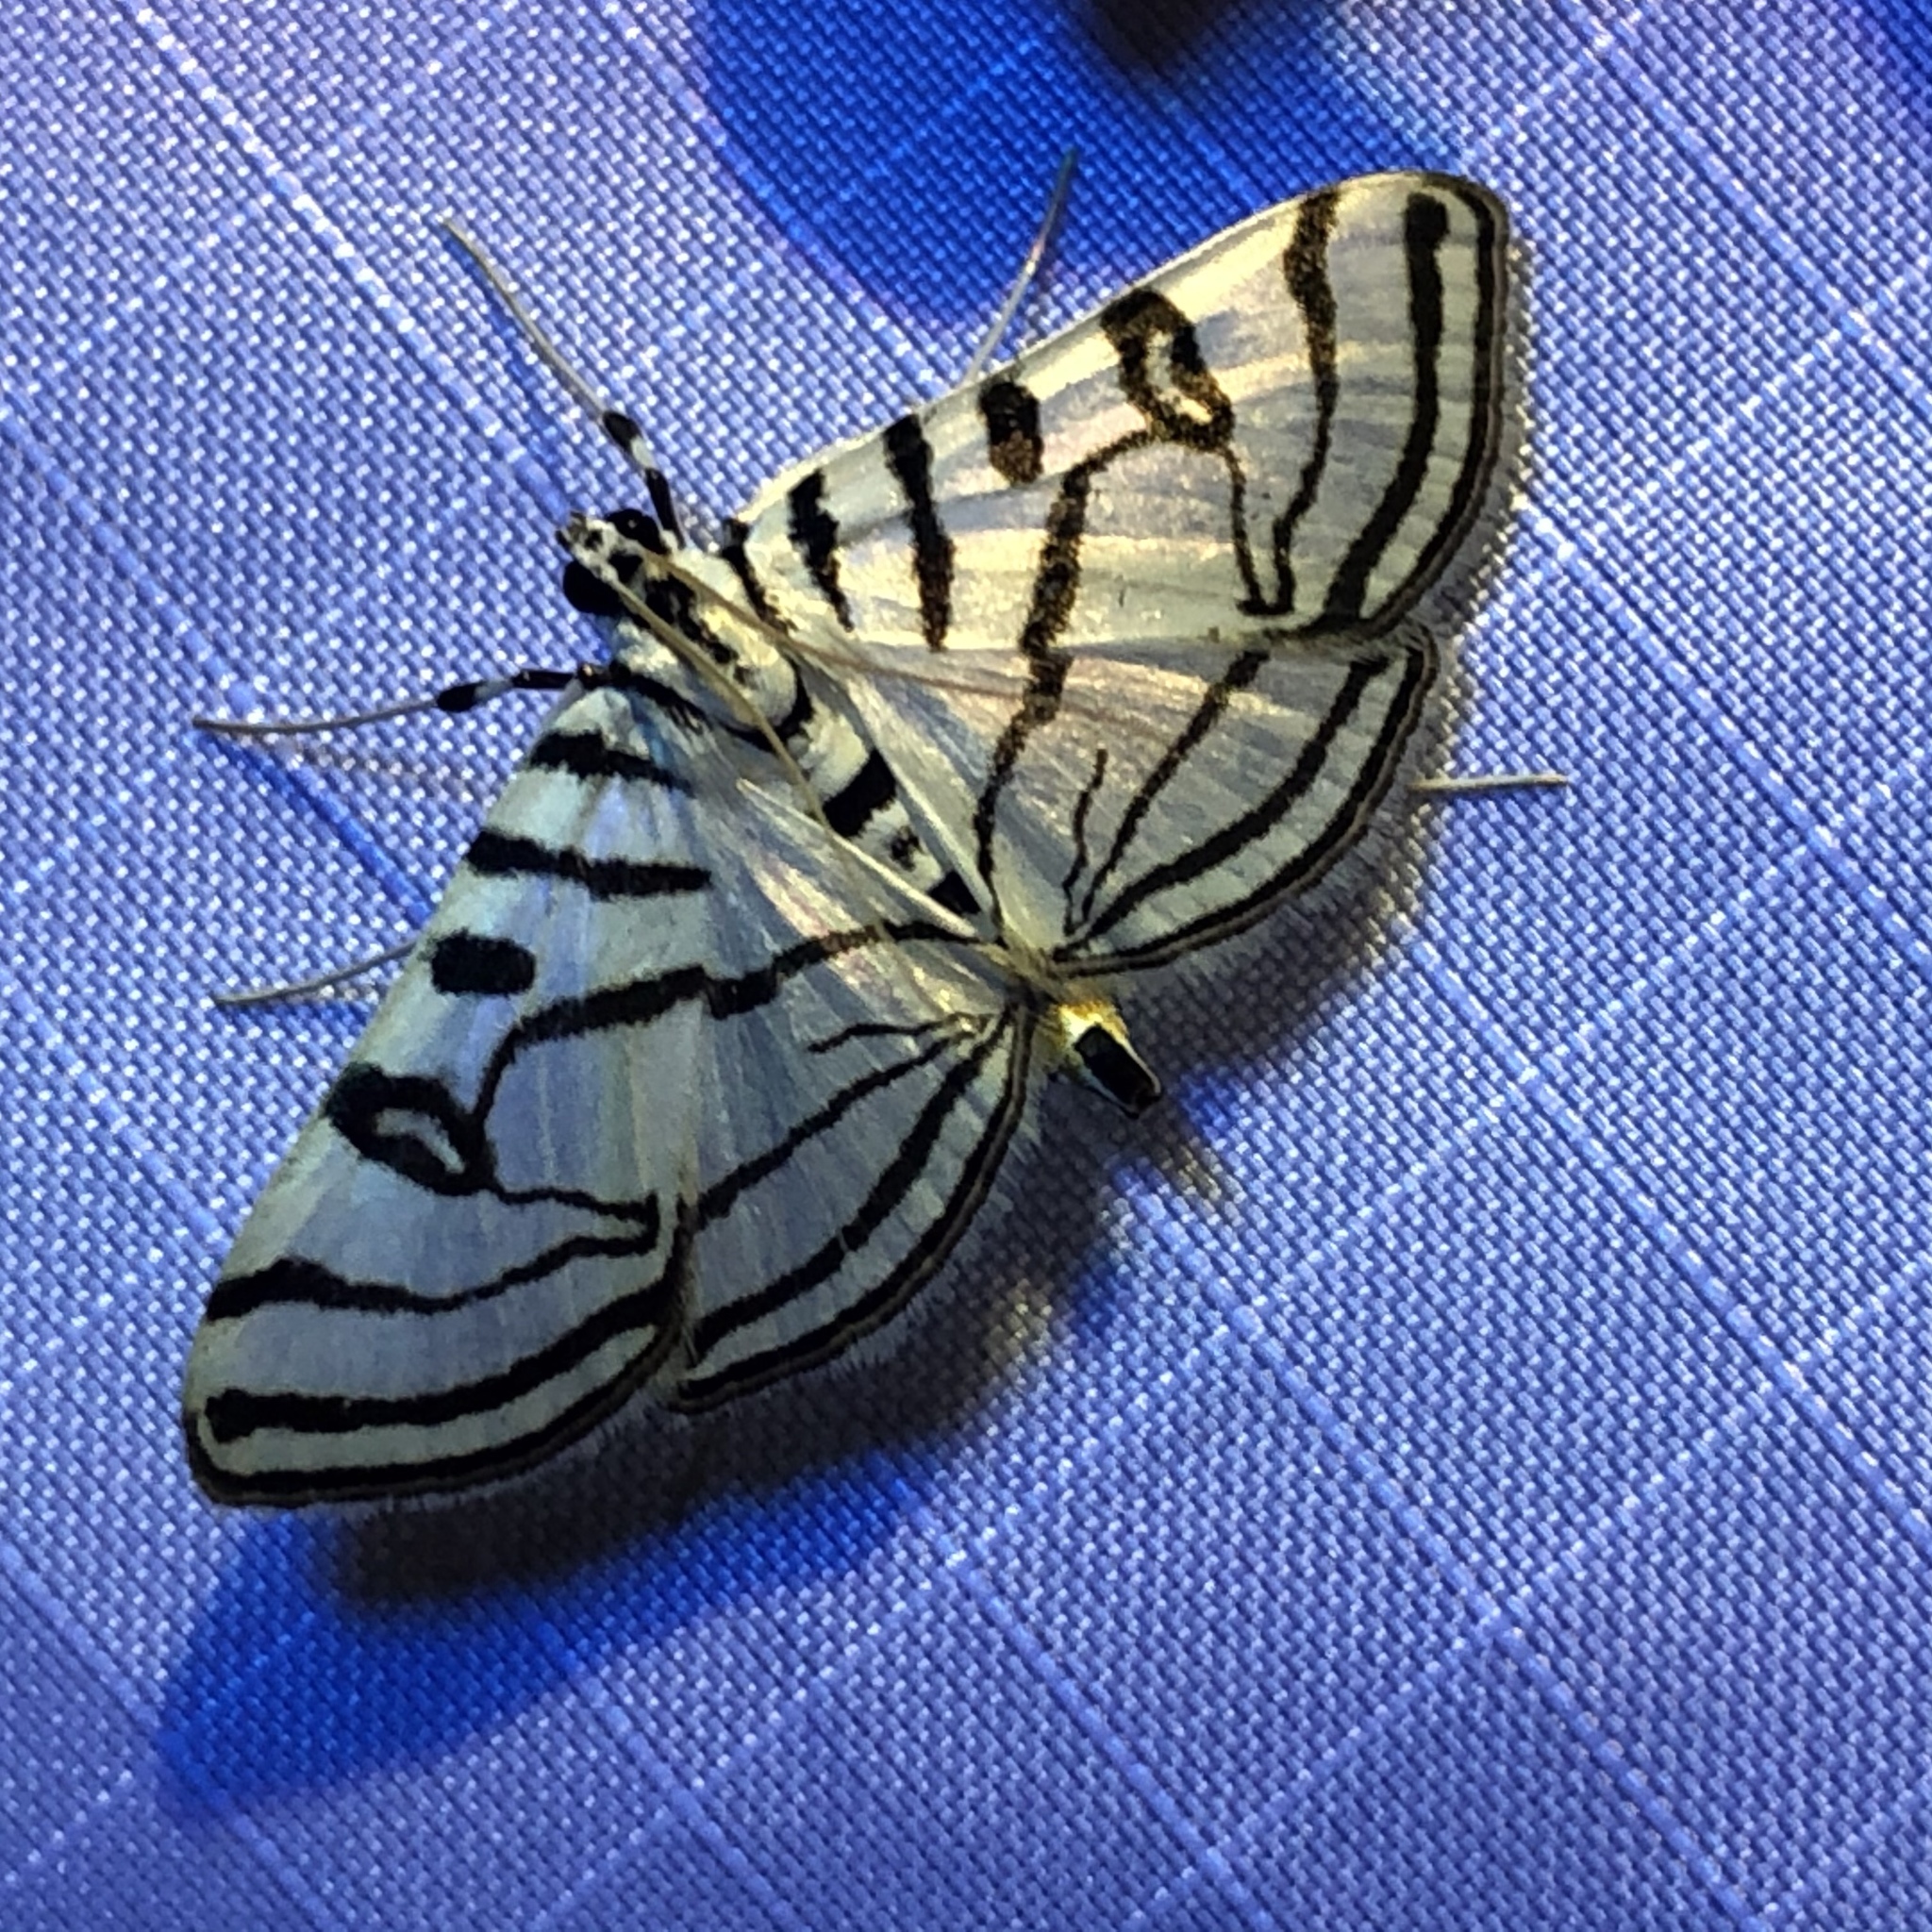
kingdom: Animalia
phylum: Arthropoda
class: Insecta
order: Lepidoptera
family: Crambidae
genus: Conchylodes
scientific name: Conchylodes ovulalis
